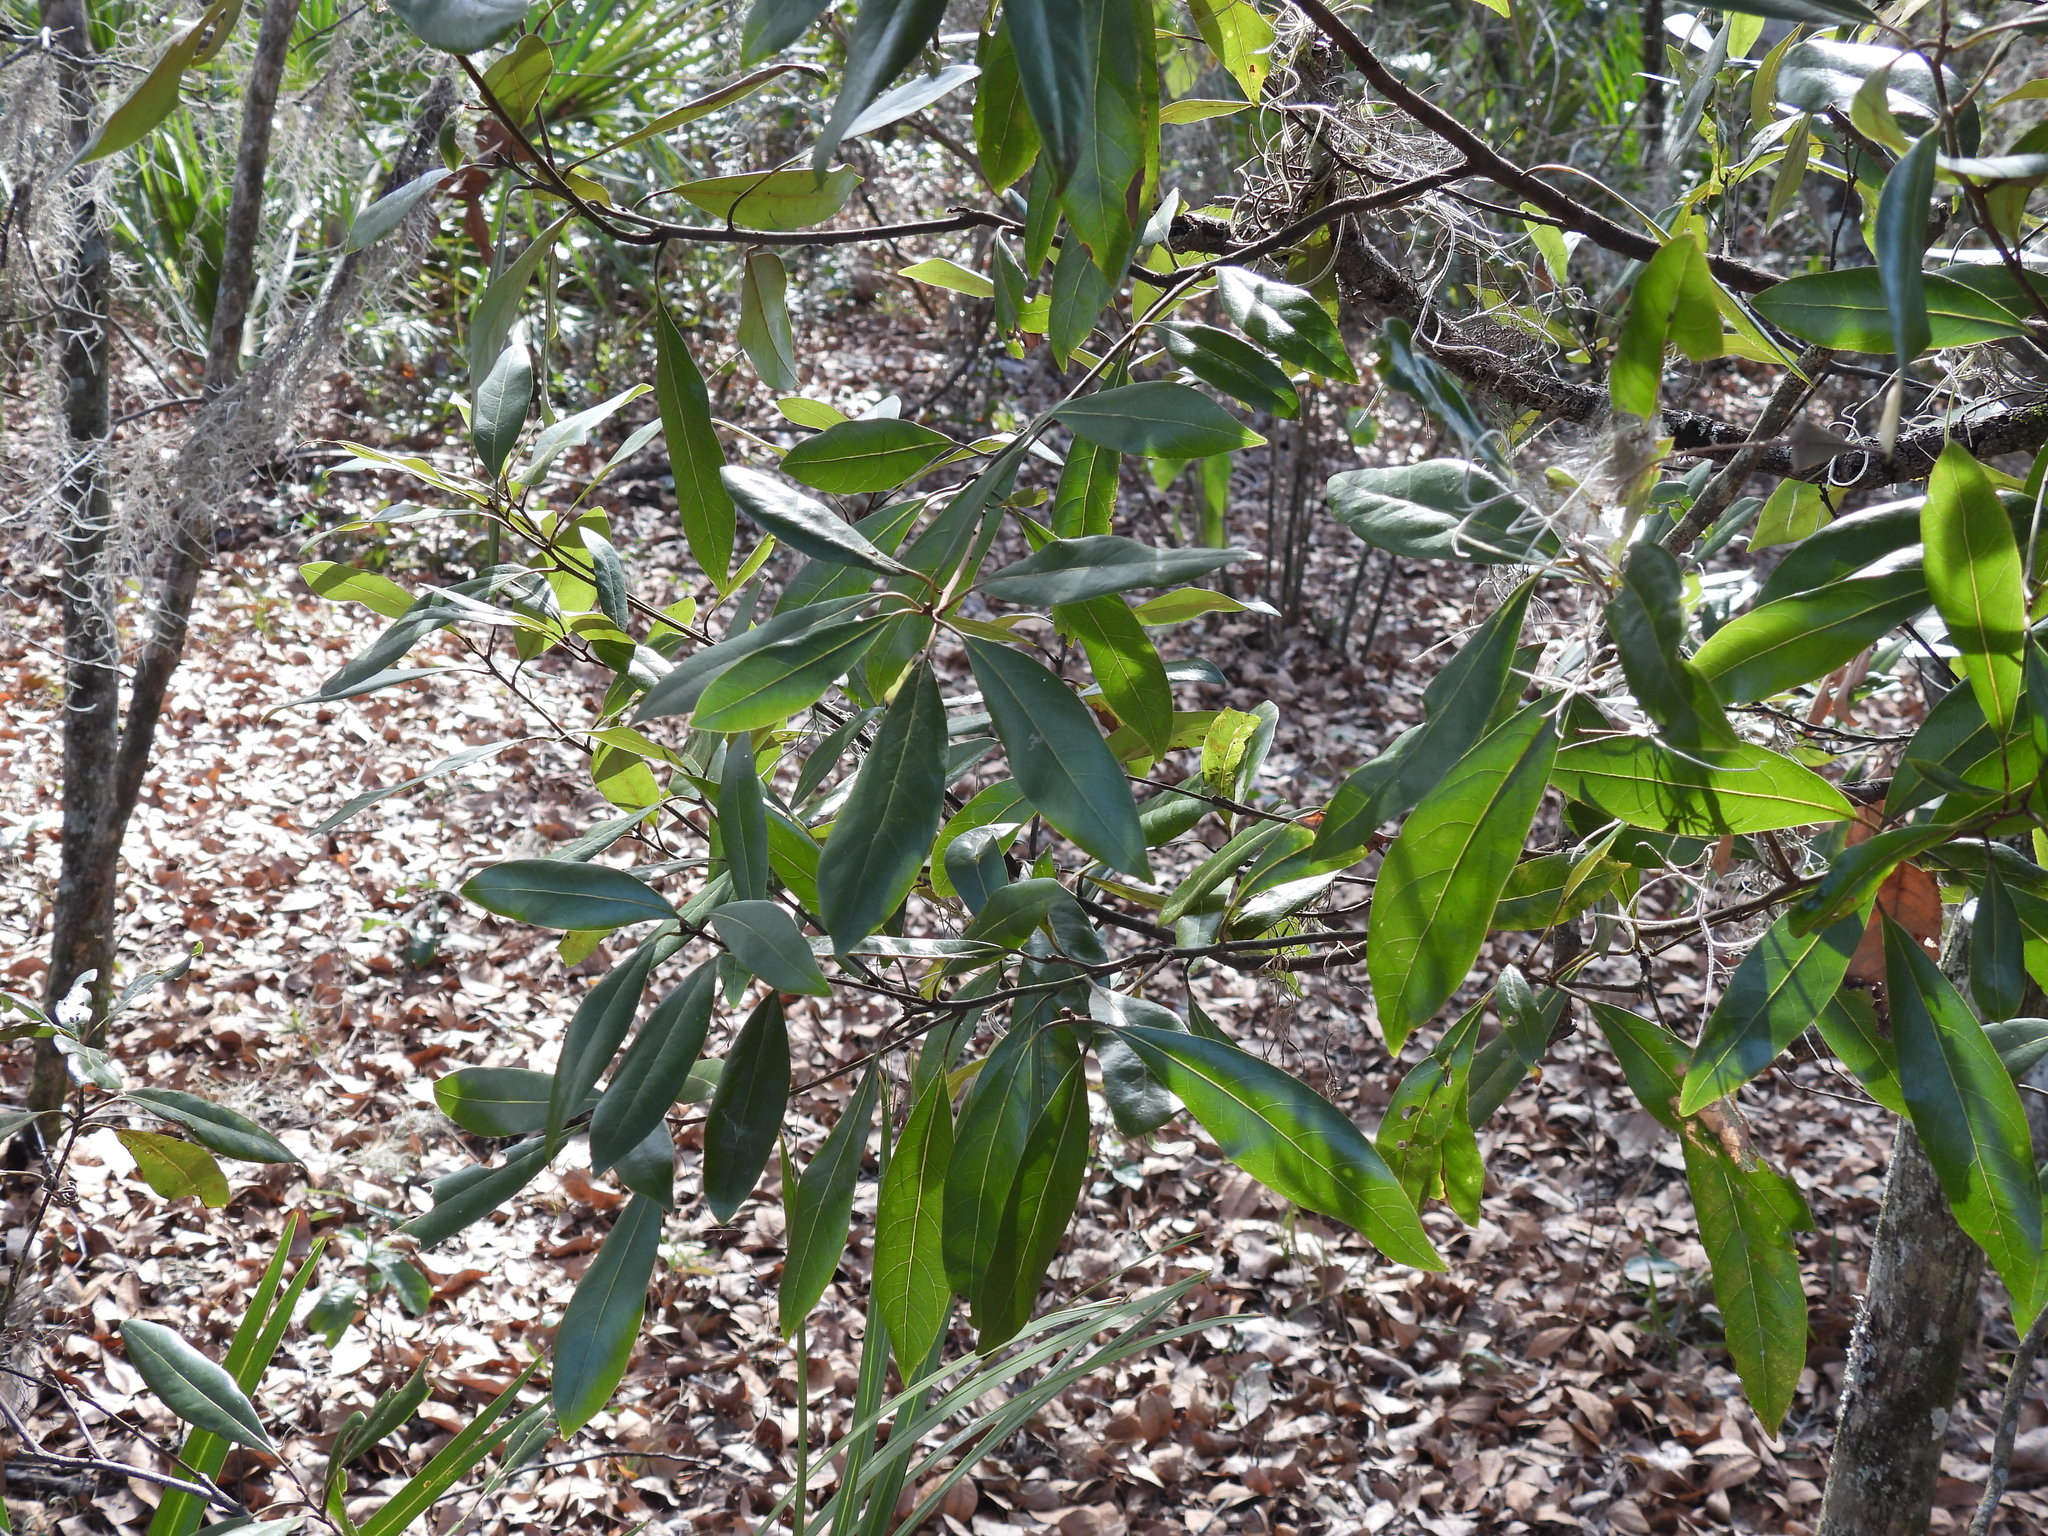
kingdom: Plantae
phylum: Tracheophyta
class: Magnoliopsida
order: Lamiales
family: Oleaceae
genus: Cartrema
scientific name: Cartrema americana
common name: Devilwood
